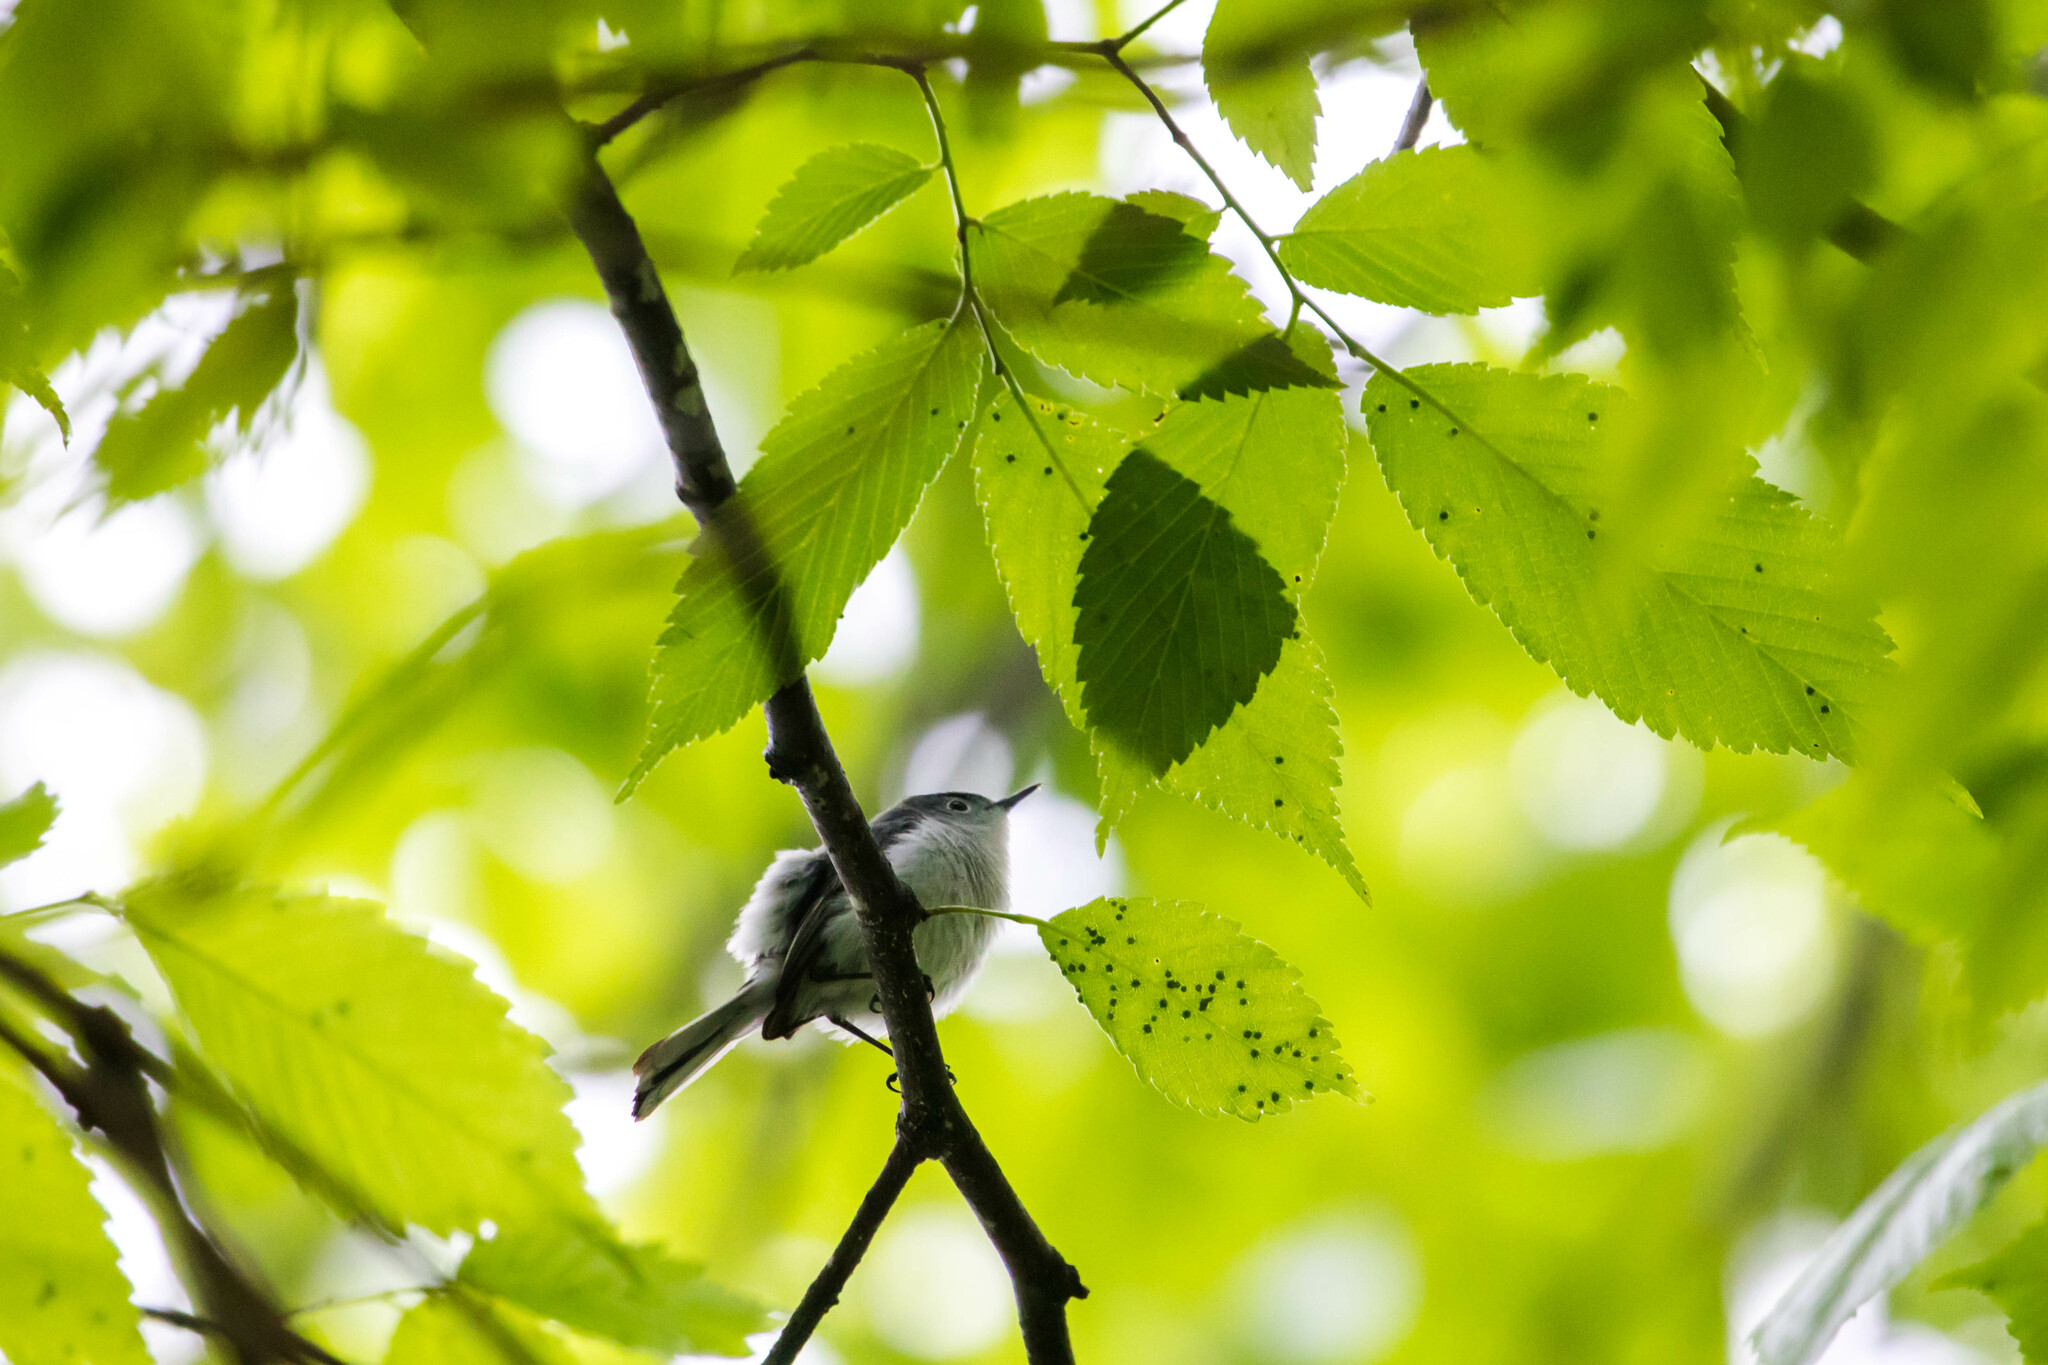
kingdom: Animalia
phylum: Chordata
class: Aves
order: Passeriformes
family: Polioptilidae
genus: Polioptila
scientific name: Polioptila caerulea
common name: Blue-gray gnatcatcher
